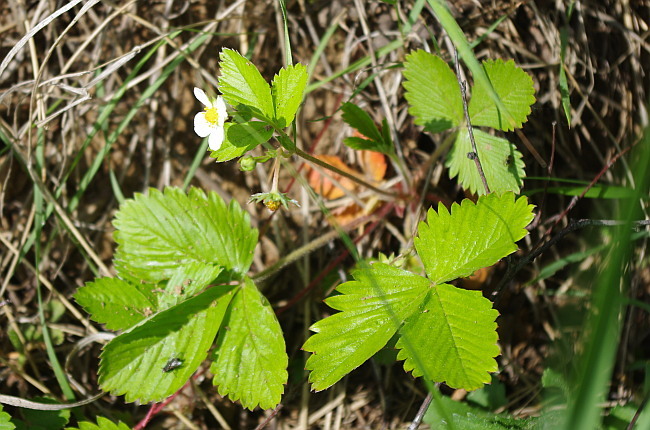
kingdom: Plantae
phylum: Tracheophyta
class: Magnoliopsida
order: Rosales
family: Rosaceae
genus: Fragaria
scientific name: Fragaria vesca
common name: Wild strawberry
